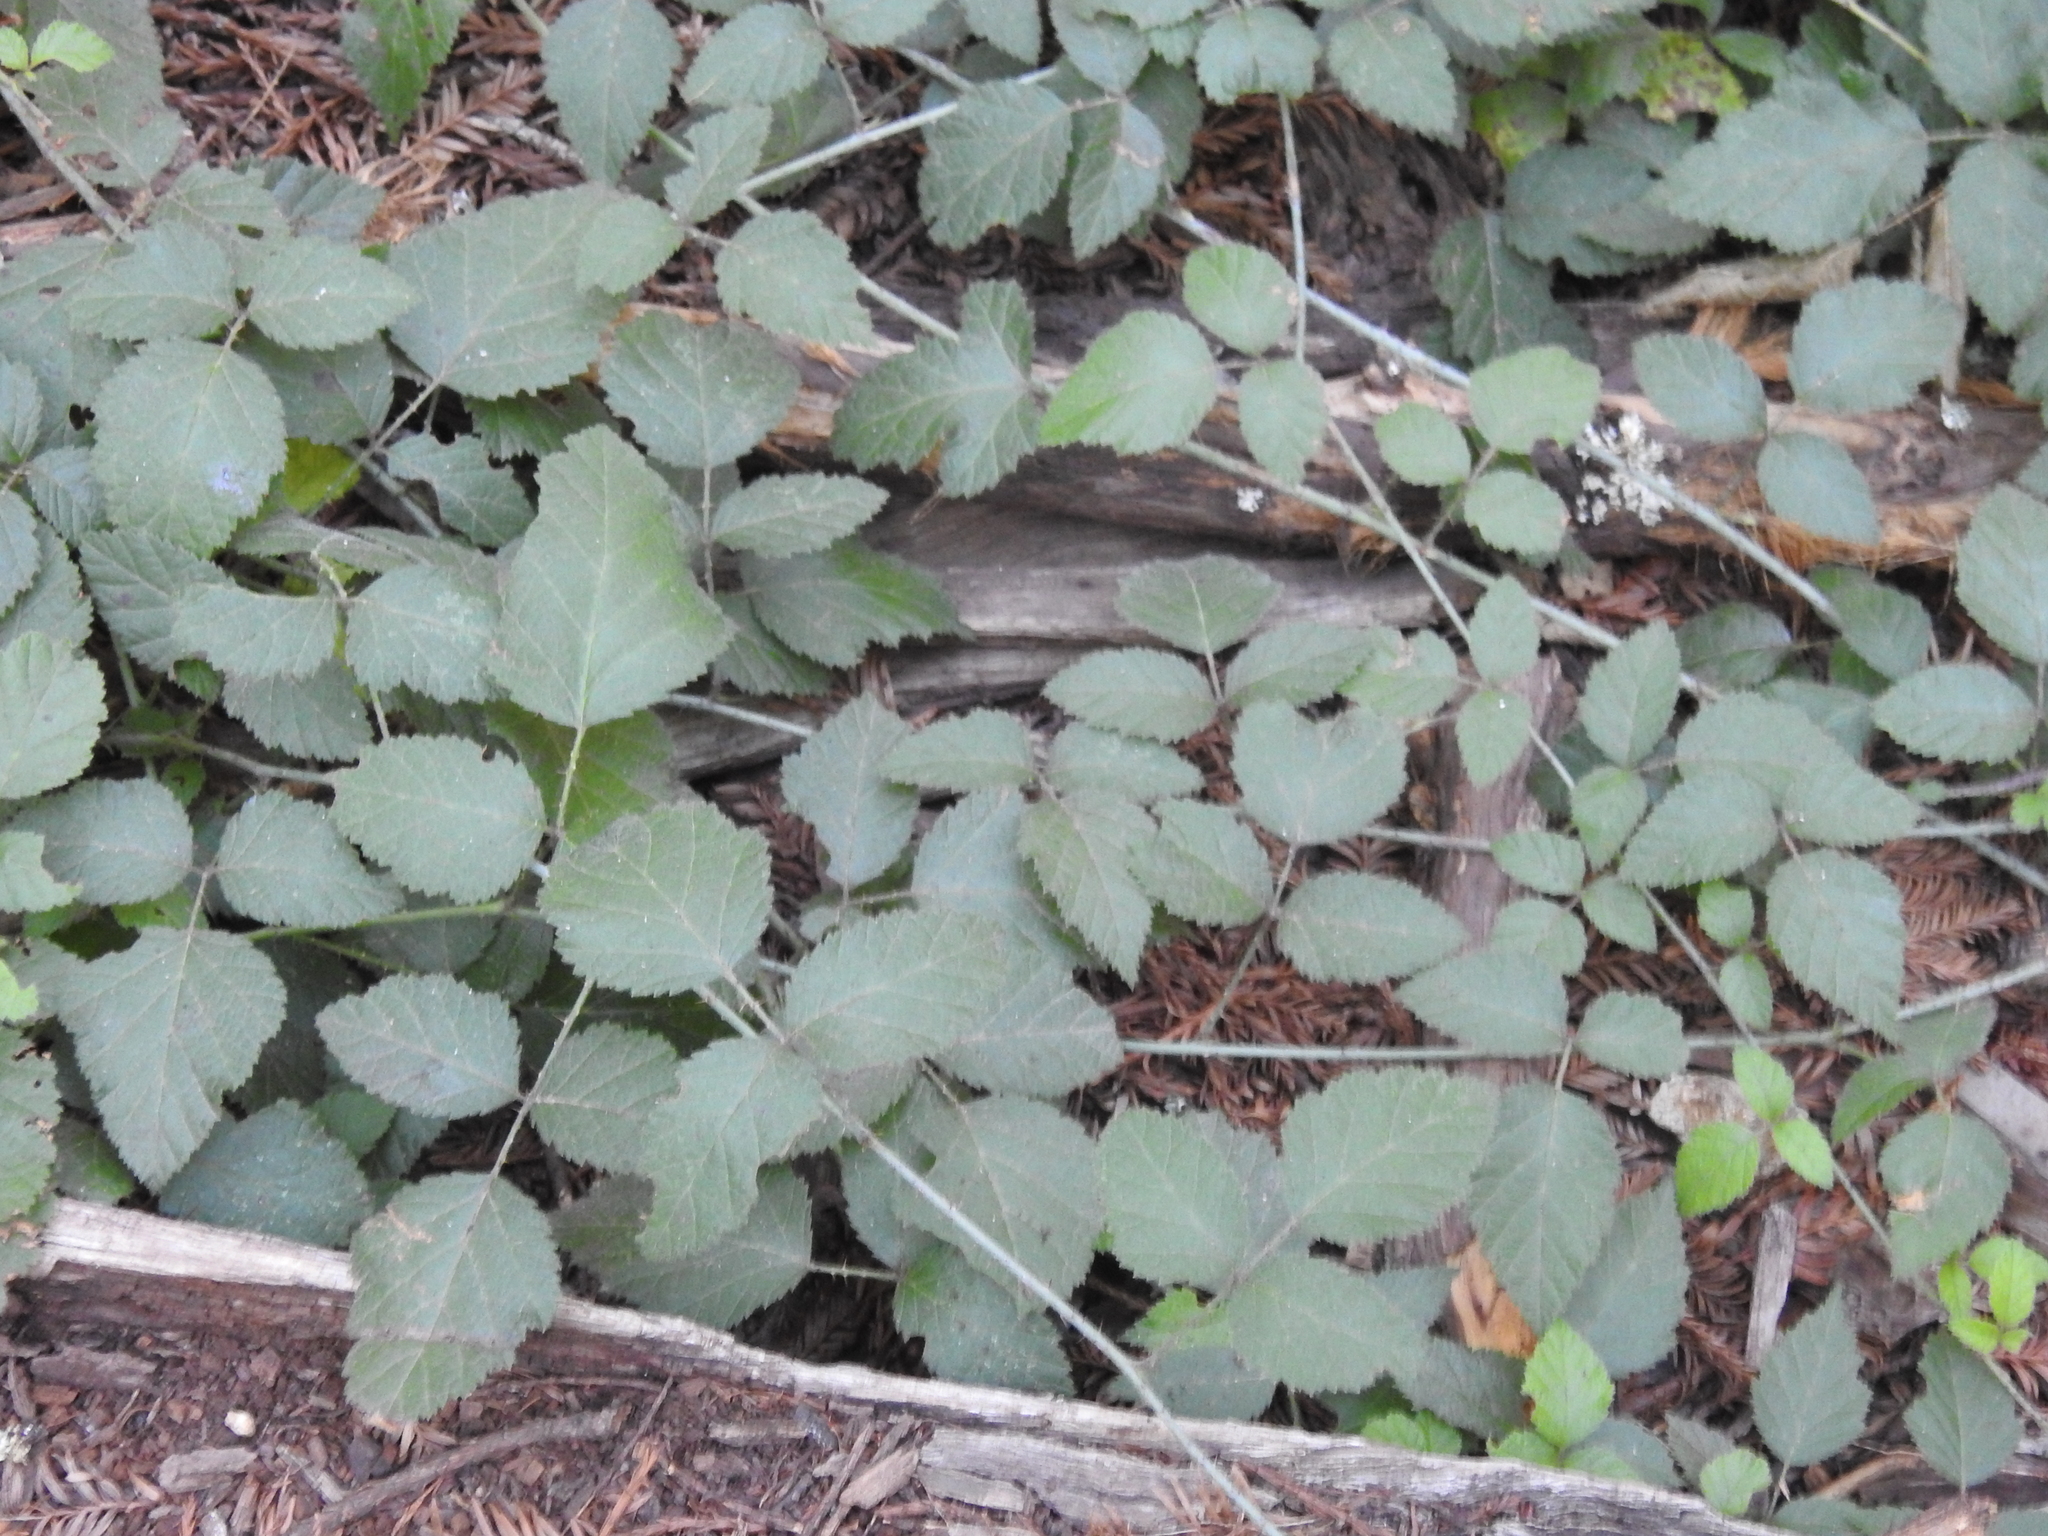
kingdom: Plantae
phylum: Tracheophyta
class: Magnoliopsida
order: Rosales
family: Rosaceae
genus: Rubus
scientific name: Rubus ursinus
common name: Pacific blackberry
